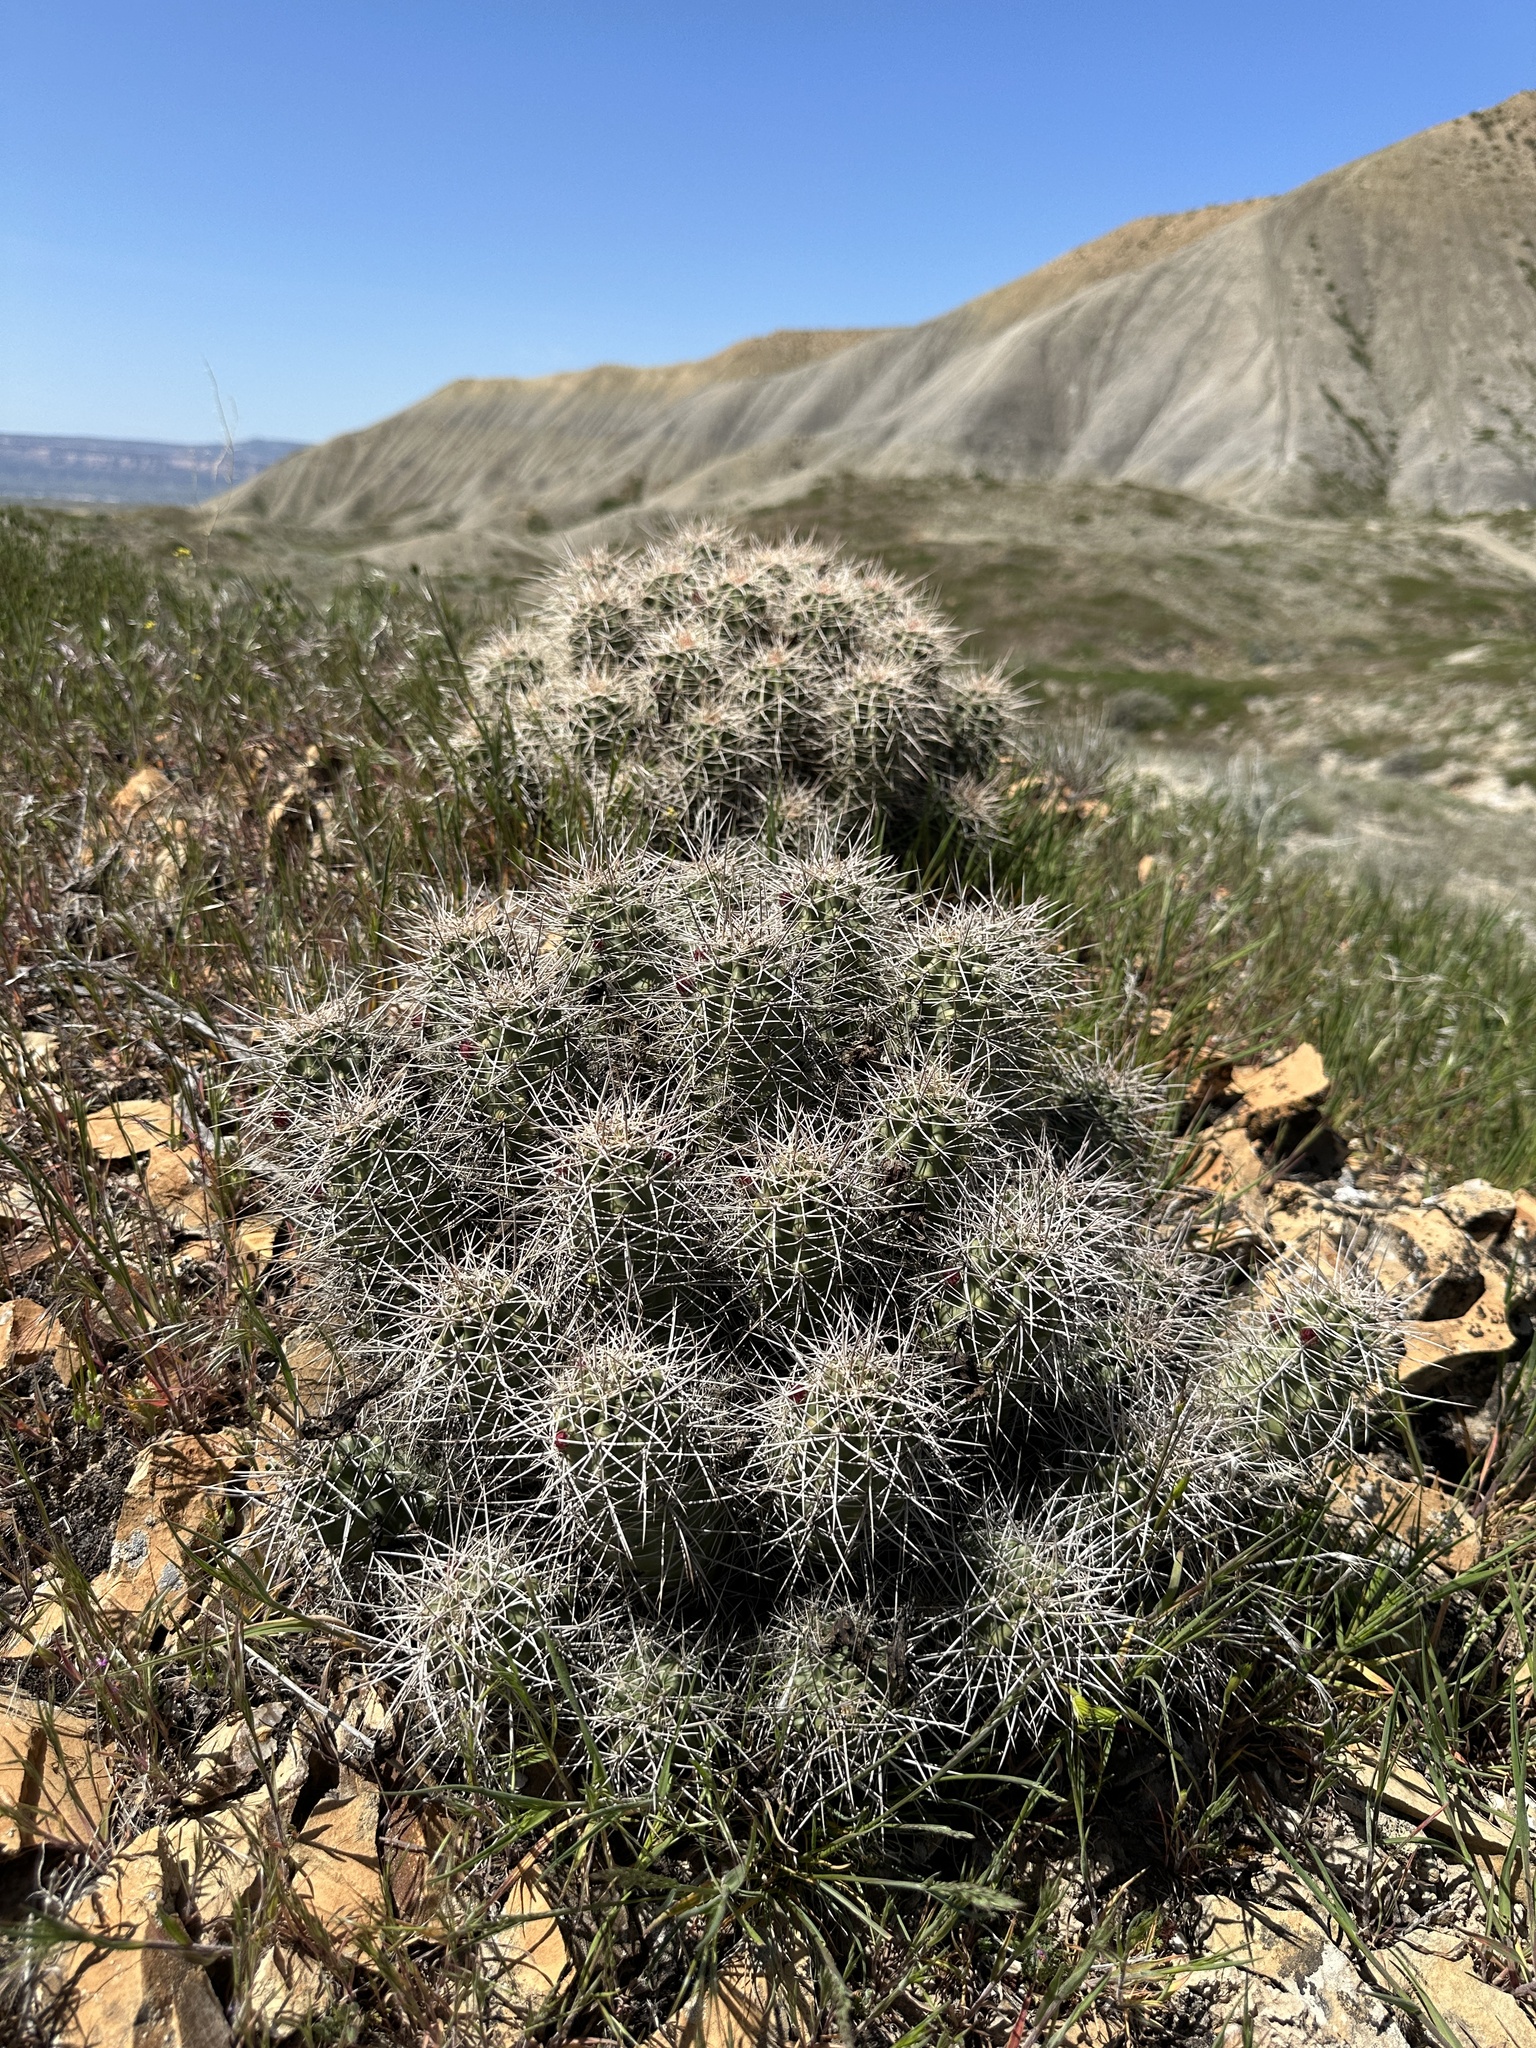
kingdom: Plantae
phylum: Tracheophyta
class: Magnoliopsida
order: Caryophyllales
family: Cactaceae
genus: Echinocereus
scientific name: Echinocereus triglochidiatus
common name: Claretcup hedgehog
